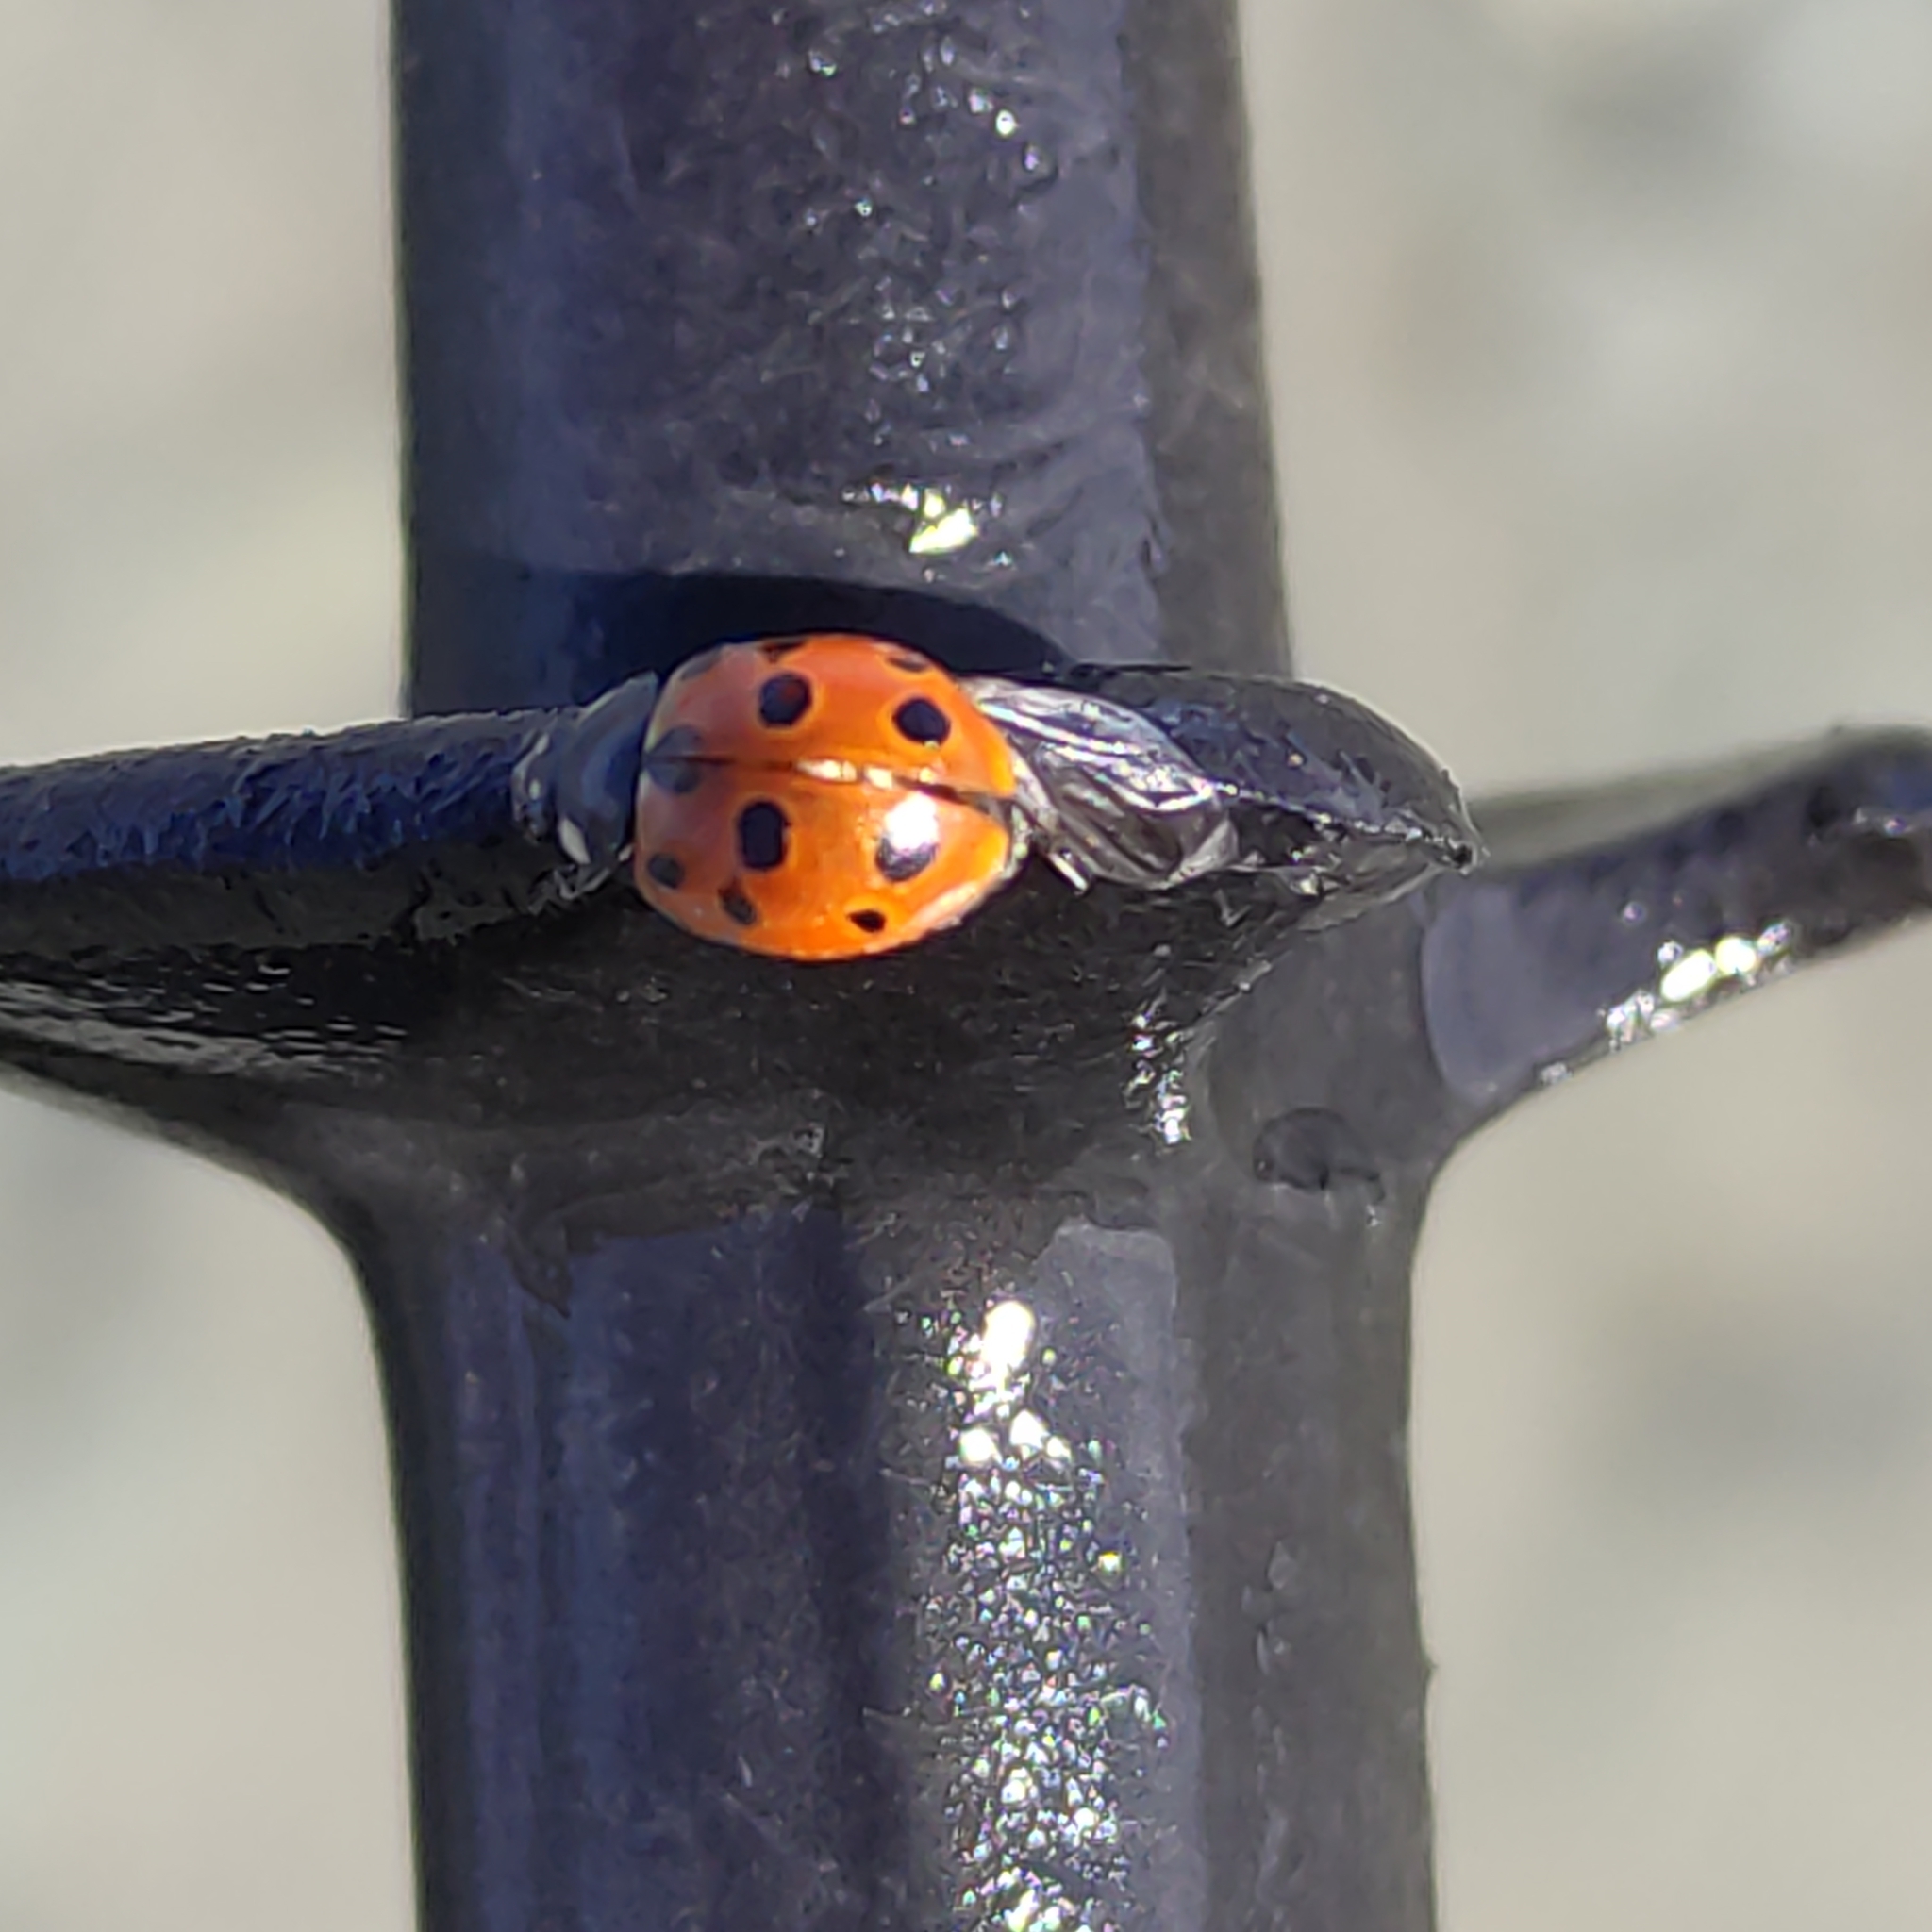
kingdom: Animalia
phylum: Arthropoda
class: Insecta
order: Coleoptera
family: Coccinellidae
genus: Coccinella
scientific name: Coccinella undecimpunctata
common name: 11-spot ladybird
